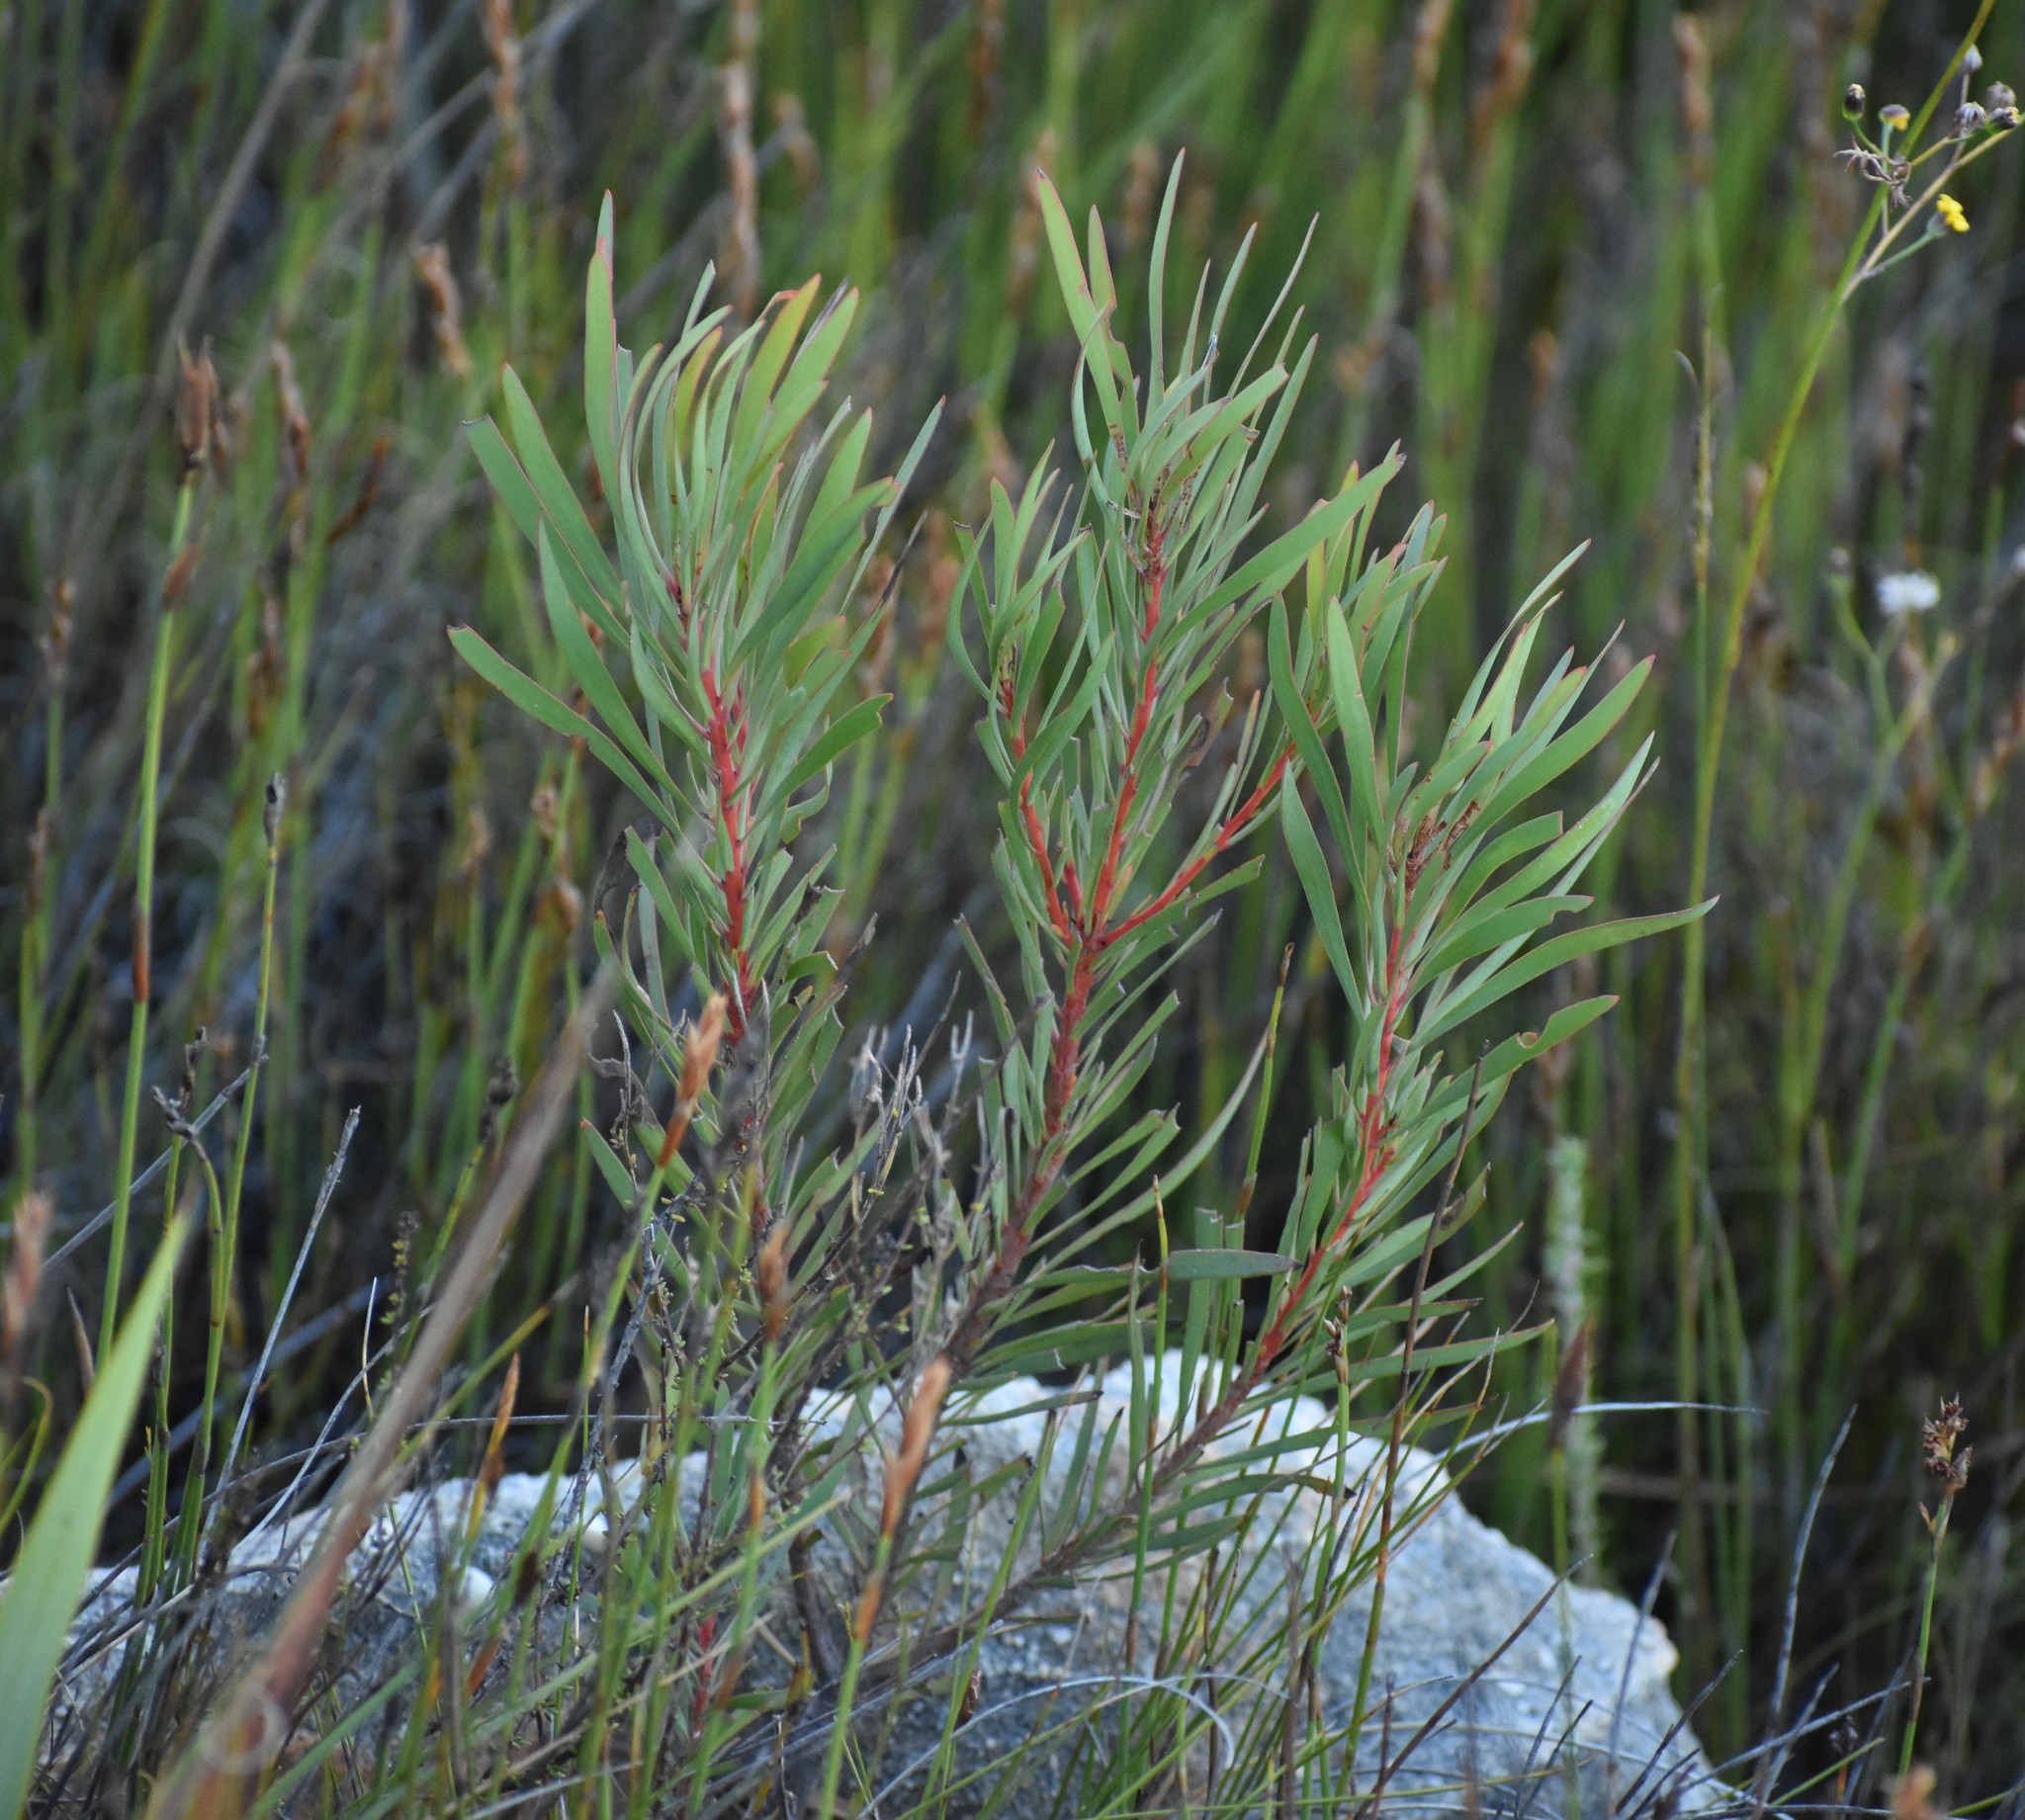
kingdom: Plantae
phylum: Tracheophyta
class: Magnoliopsida
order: Proteales
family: Proteaceae
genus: Protea
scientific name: Protea repens
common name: Sugarbush
